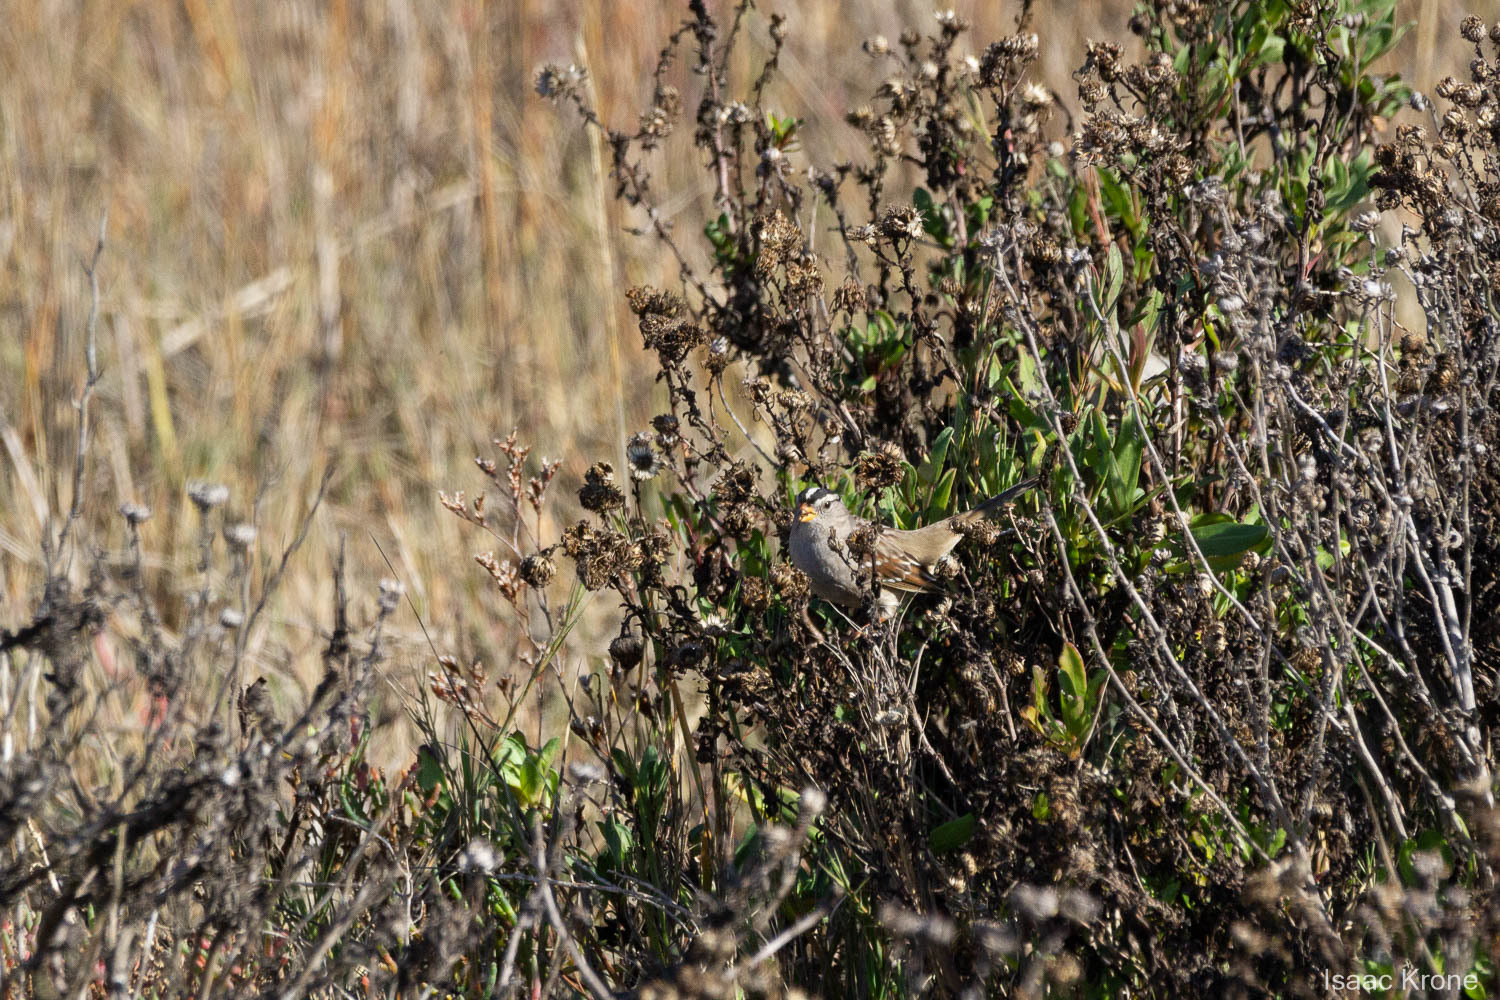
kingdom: Animalia
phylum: Chordata
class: Aves
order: Passeriformes
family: Passerellidae
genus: Zonotrichia
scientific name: Zonotrichia leucophrys
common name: White-crowned sparrow
